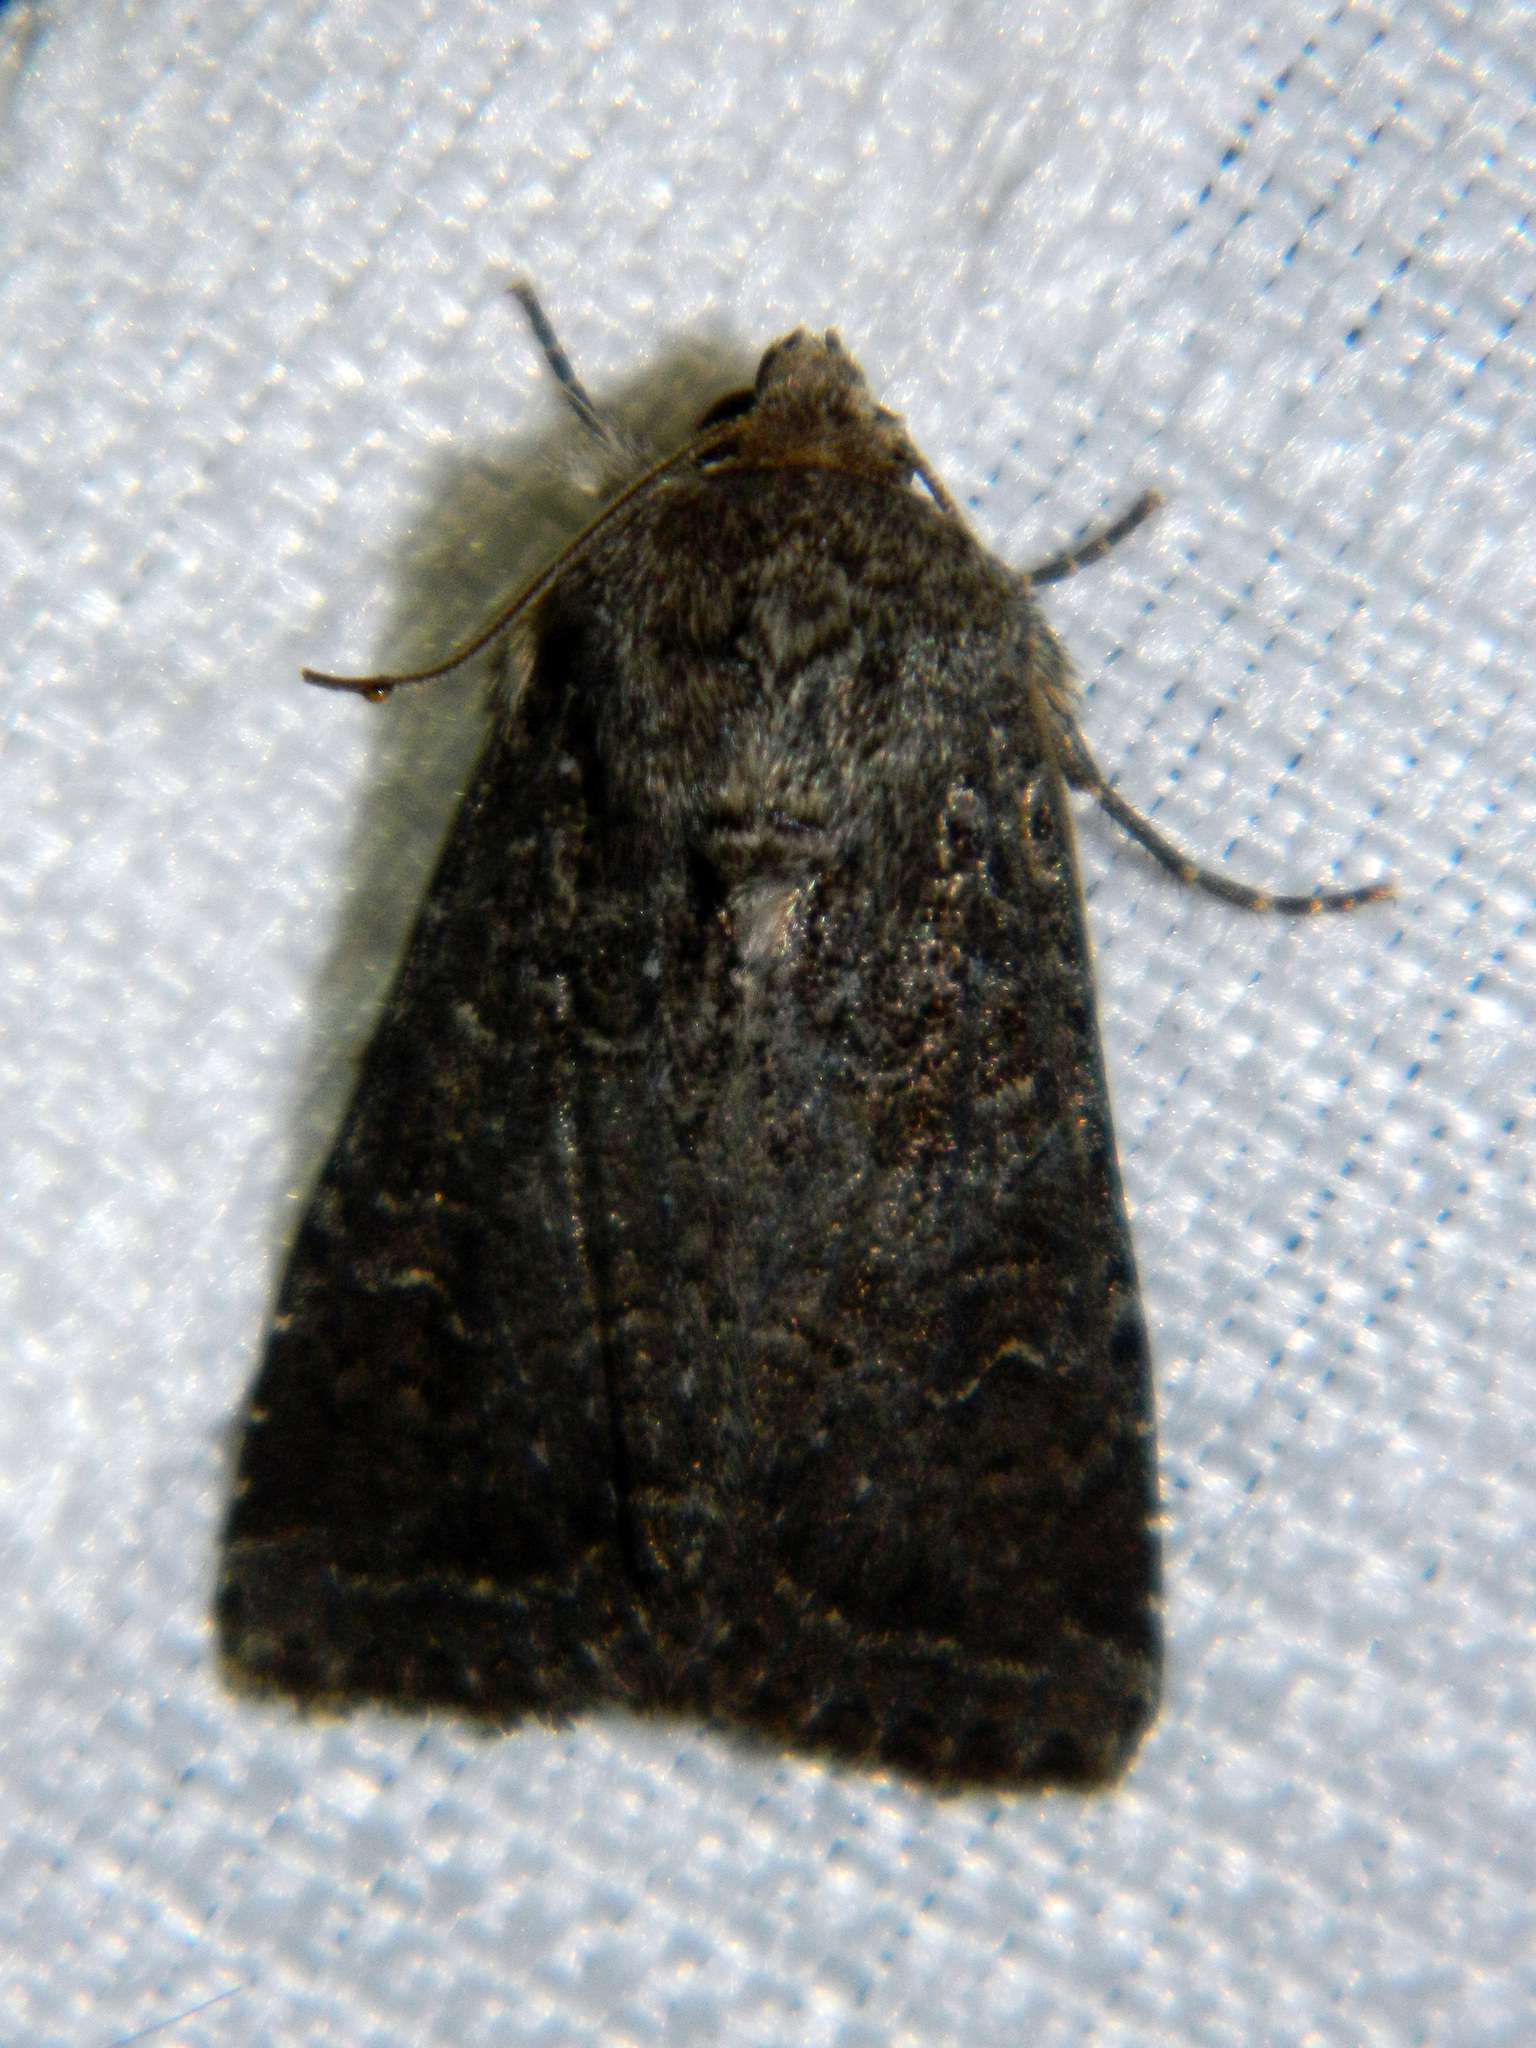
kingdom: Animalia
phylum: Arthropoda
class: Insecta
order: Lepidoptera
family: Noctuidae
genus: Apamea
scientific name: Apamea devastator
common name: Glassy cutworm
